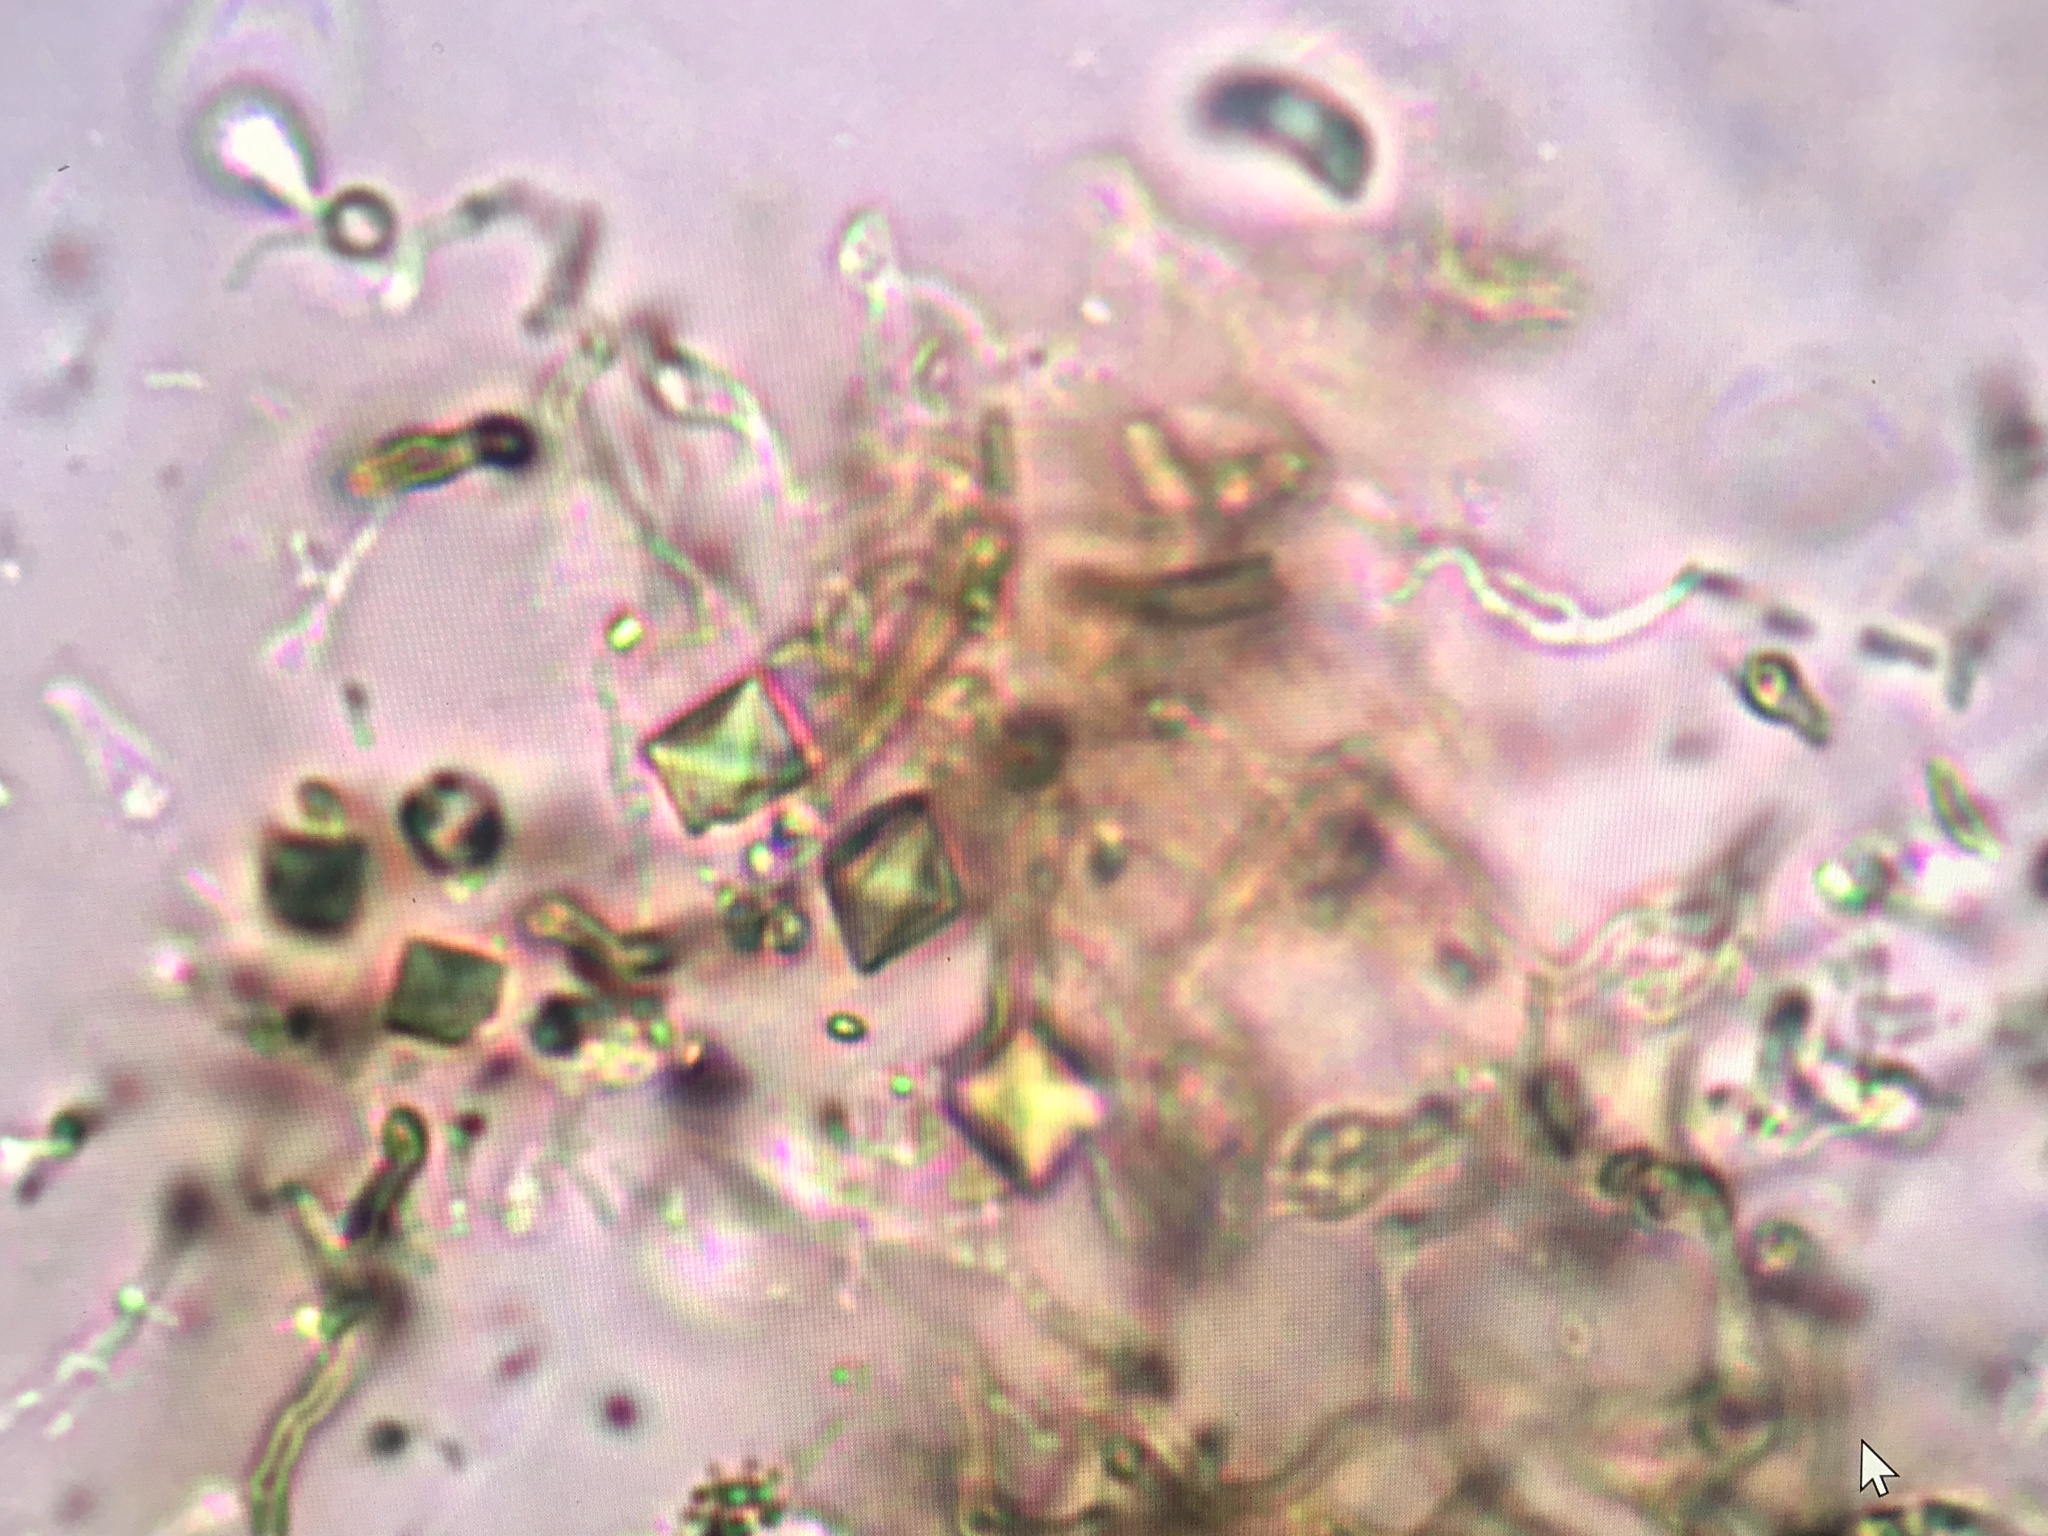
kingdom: Fungi
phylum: Basidiomycota
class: Agaricomycetes
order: Auriculariales
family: Auriculariaceae
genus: Exidia
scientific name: Exidia glandulosa
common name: Witches' butter
